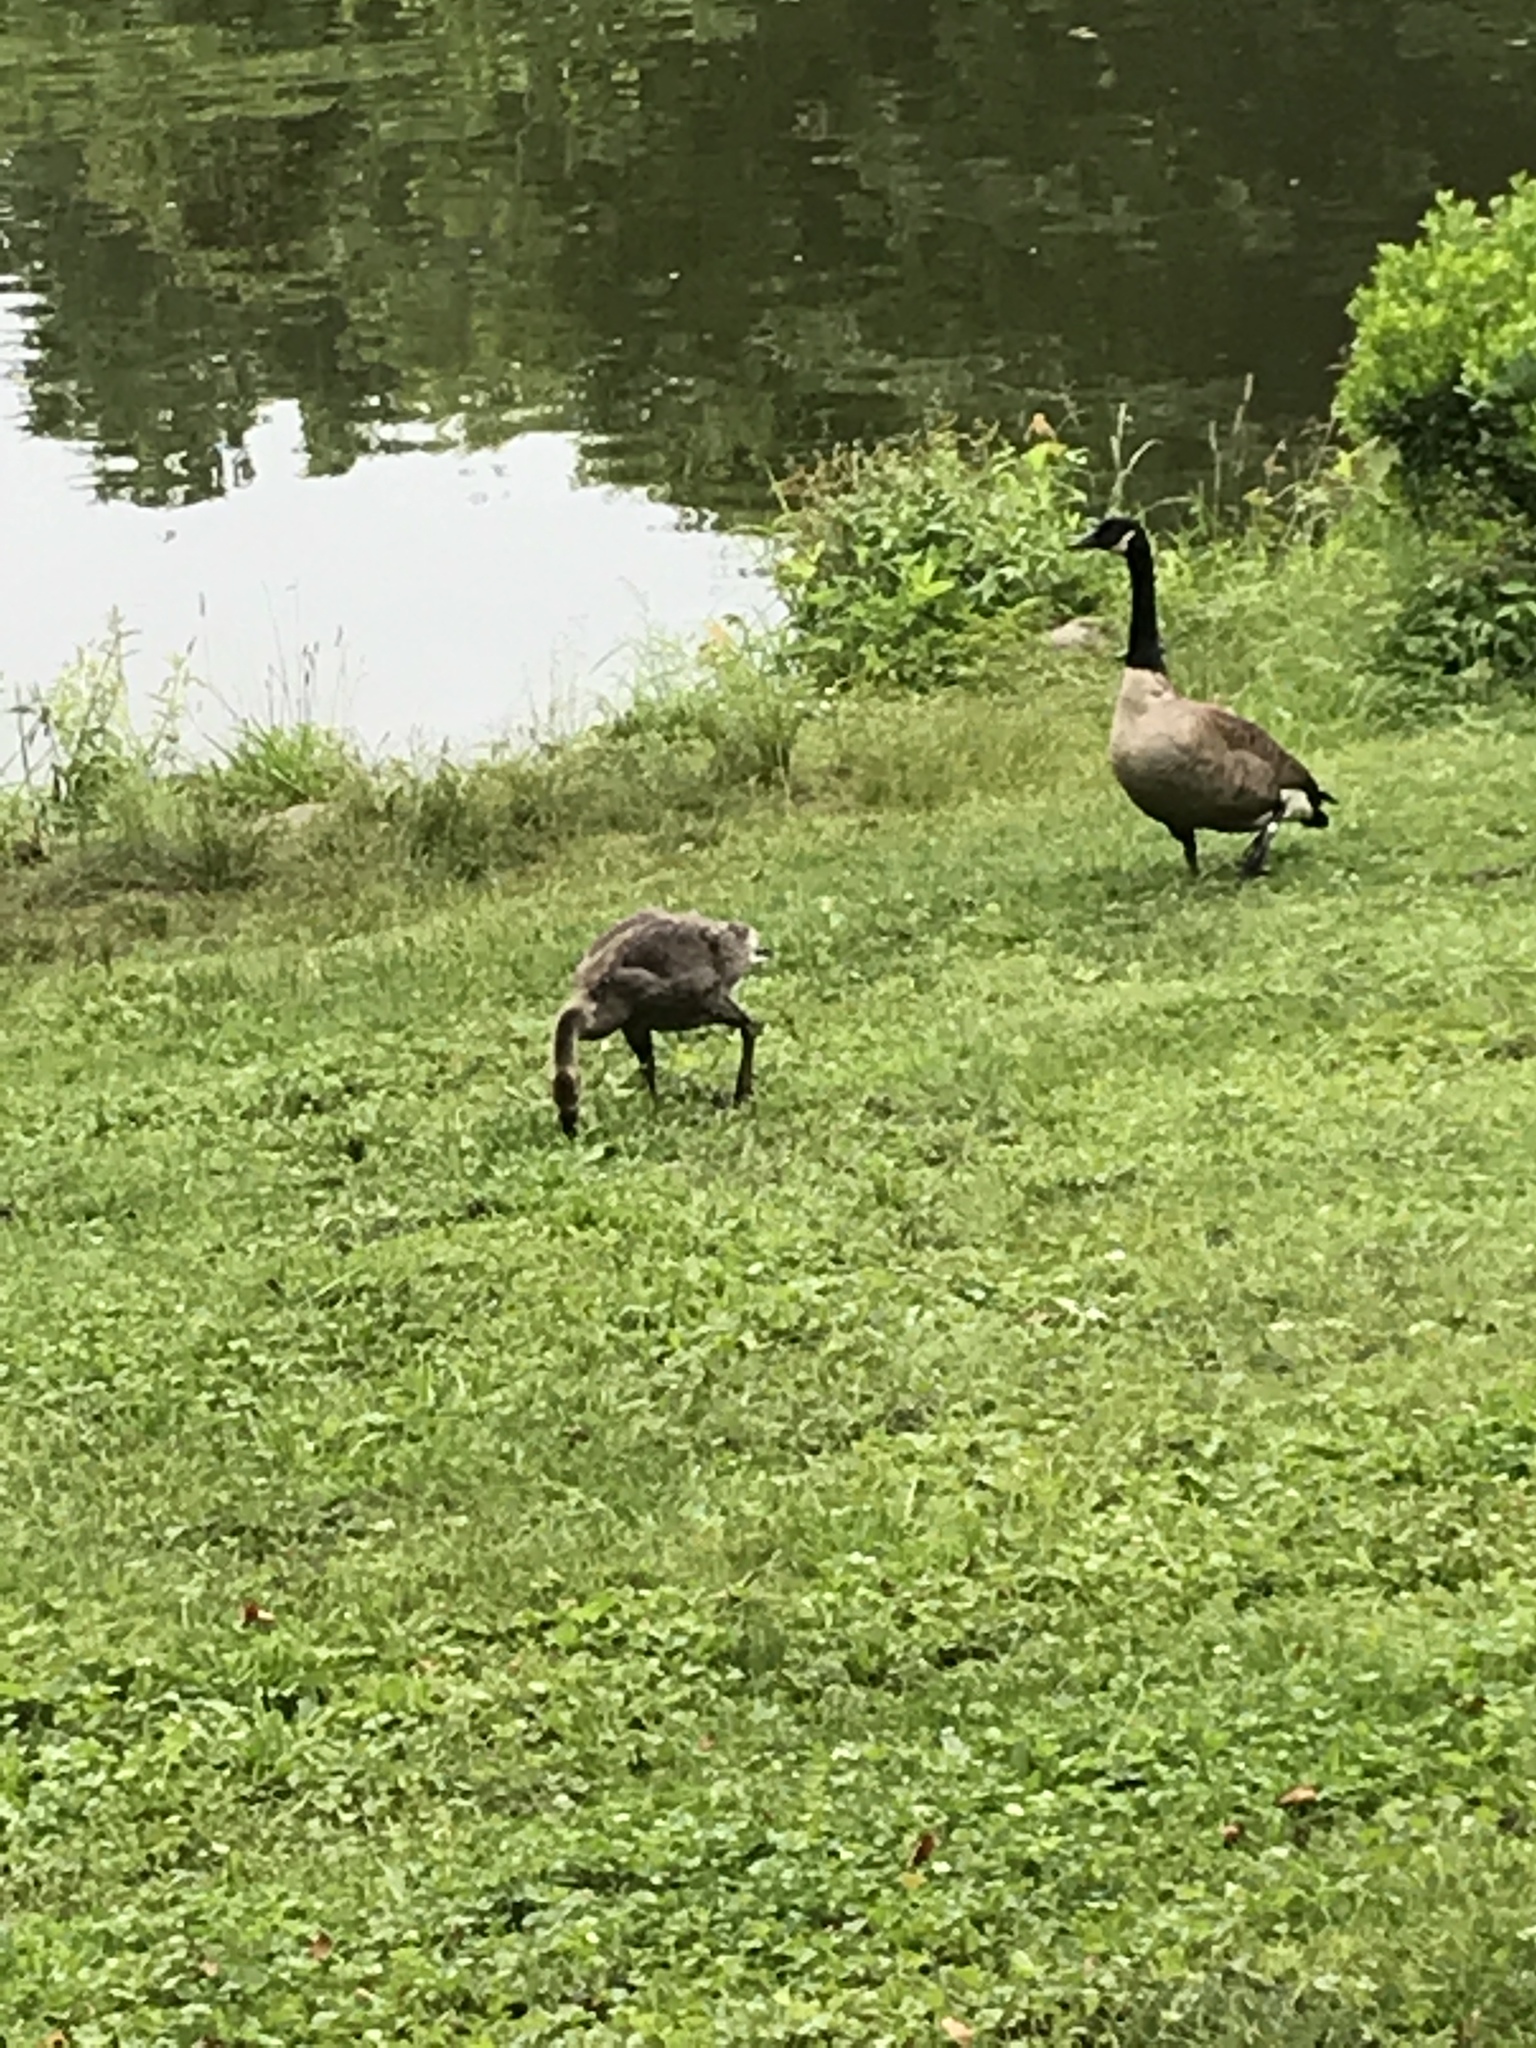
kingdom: Animalia
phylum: Chordata
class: Aves
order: Anseriformes
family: Anatidae
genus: Branta
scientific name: Branta canadensis
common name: Canada goose
